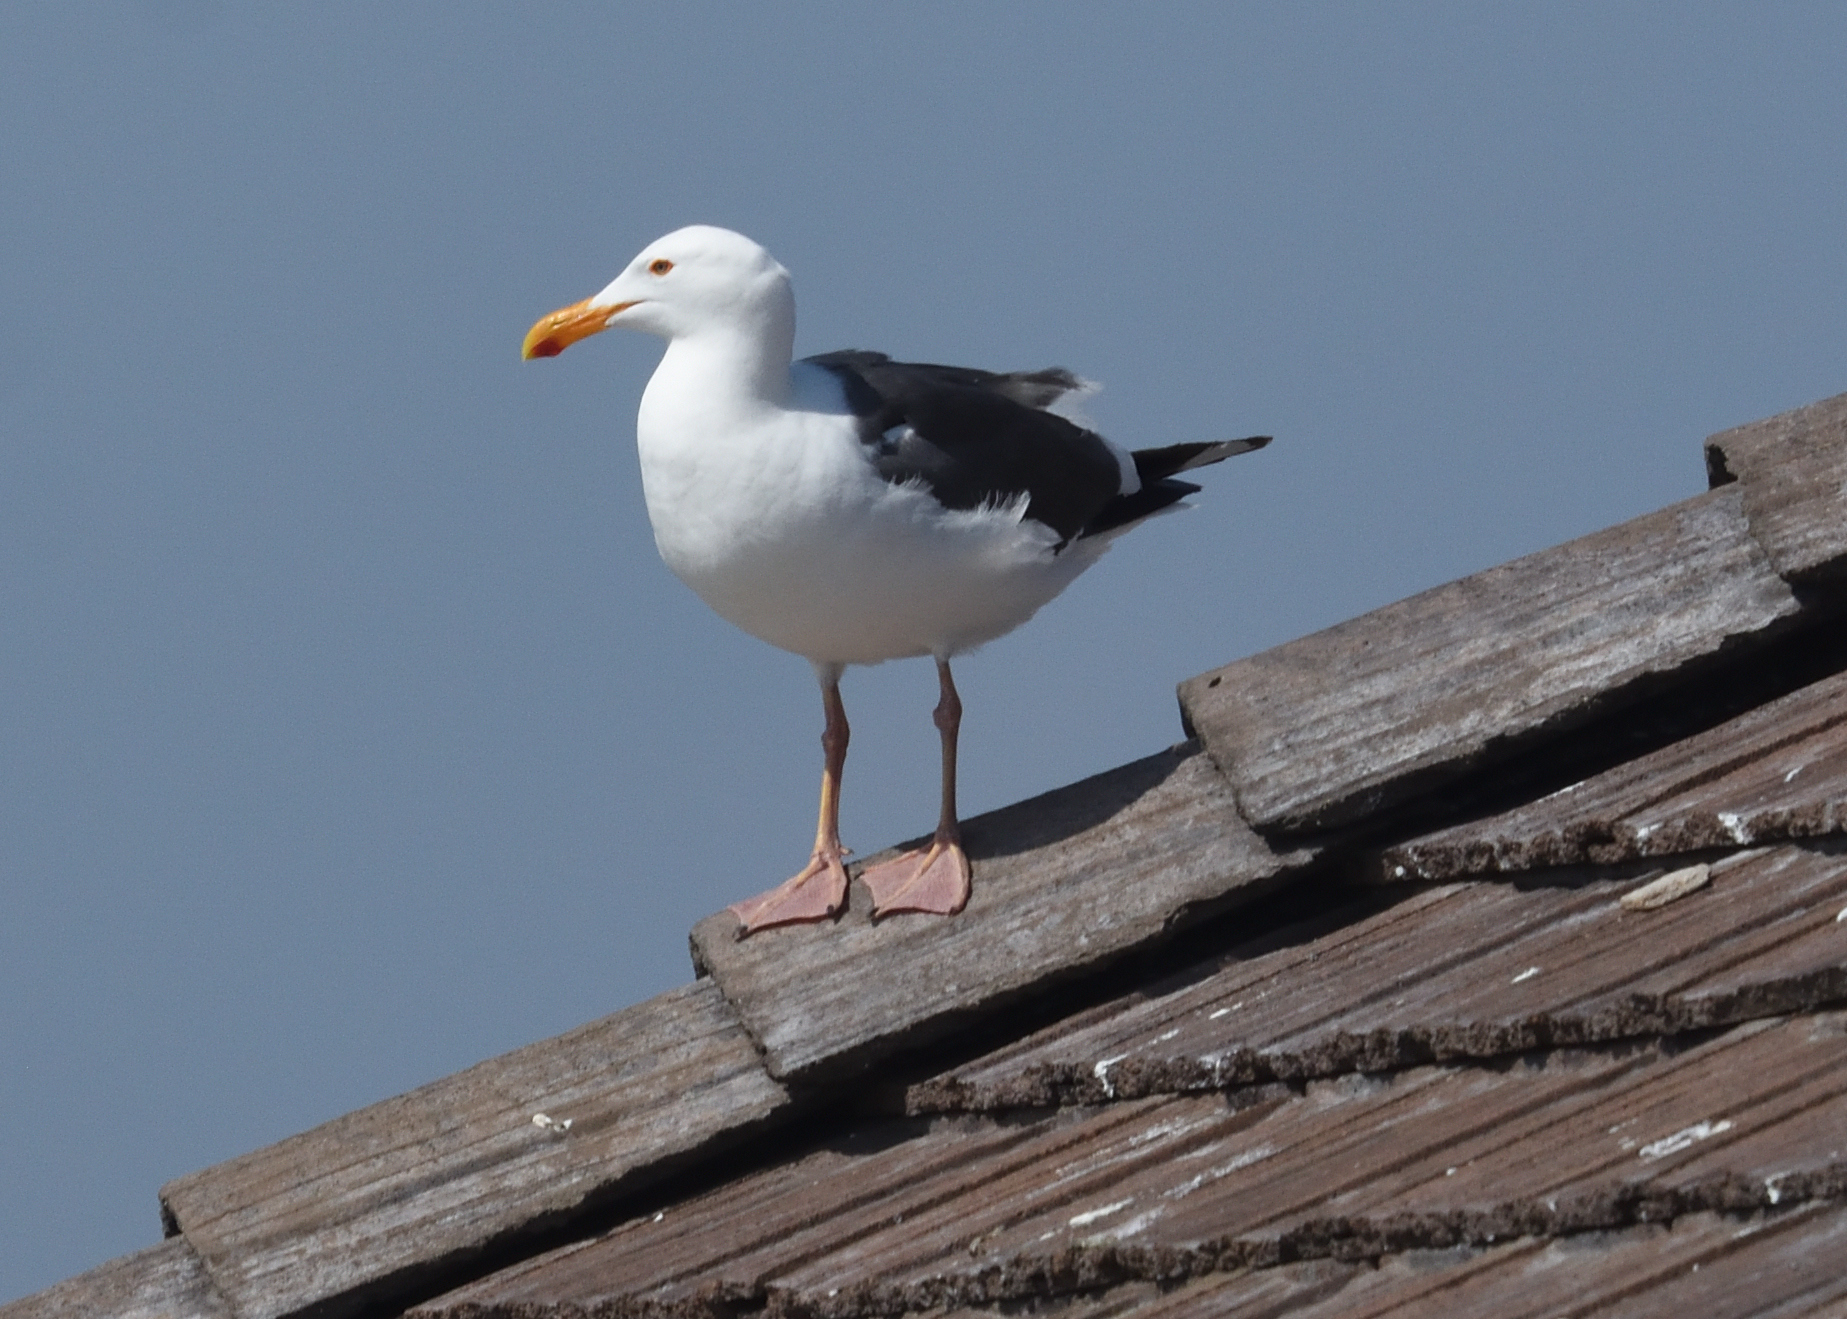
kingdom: Animalia
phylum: Chordata
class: Aves
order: Charadriiformes
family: Laridae
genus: Larus
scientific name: Larus occidentalis
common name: Western gull
